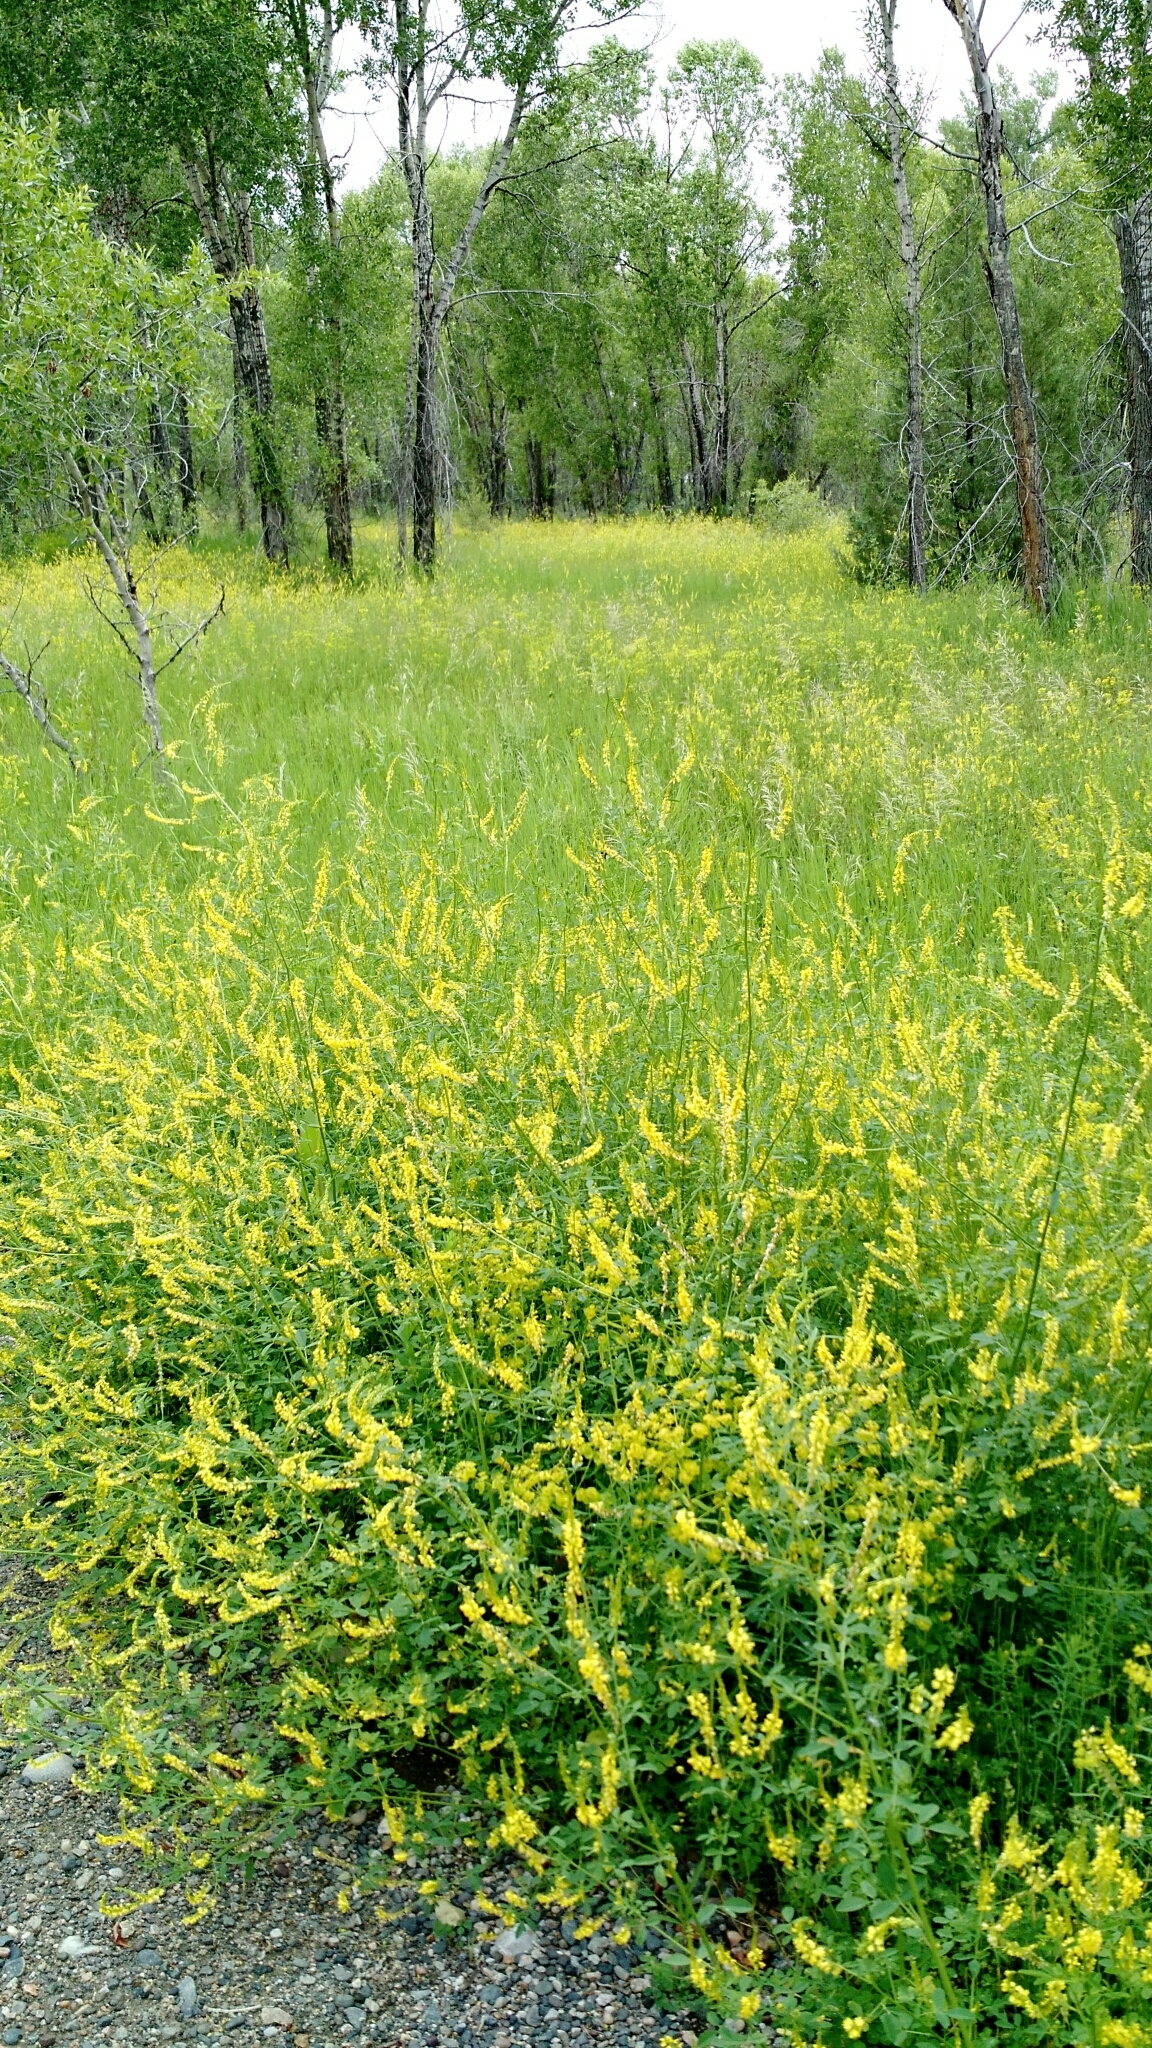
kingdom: Plantae
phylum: Tracheophyta
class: Magnoliopsida
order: Fabales
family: Fabaceae
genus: Melilotus
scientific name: Melilotus officinalis
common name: Sweetclover
